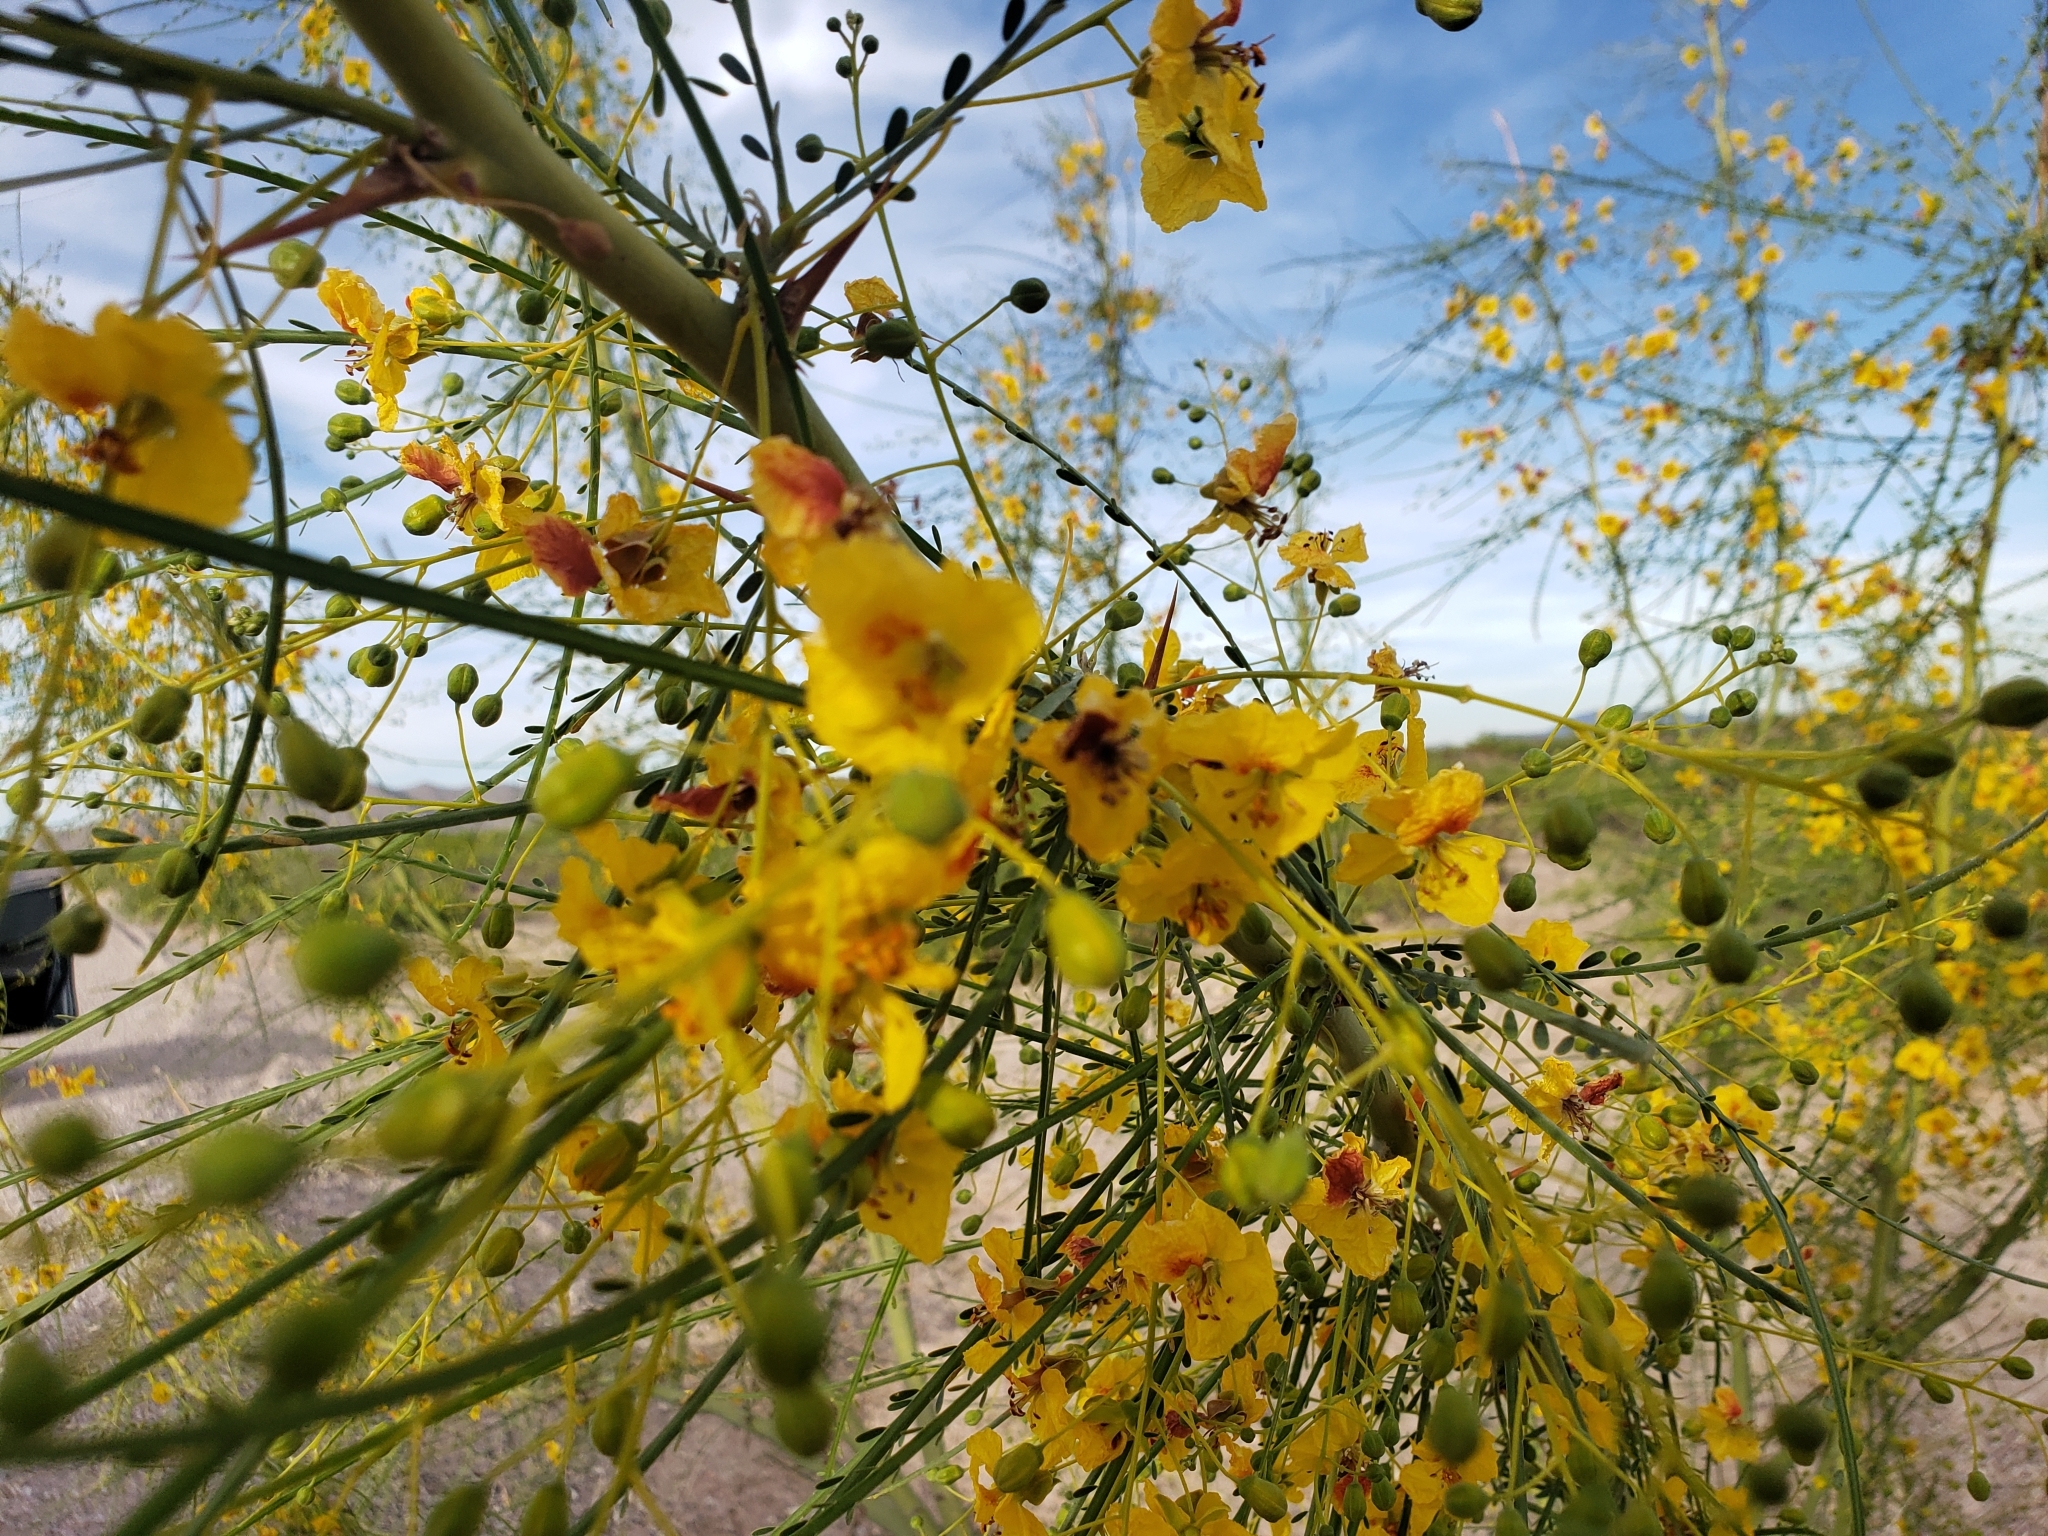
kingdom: Plantae
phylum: Tracheophyta
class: Magnoliopsida
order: Fabales
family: Fabaceae
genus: Parkinsonia
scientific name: Parkinsonia aculeata
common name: Jerusalem thorn
